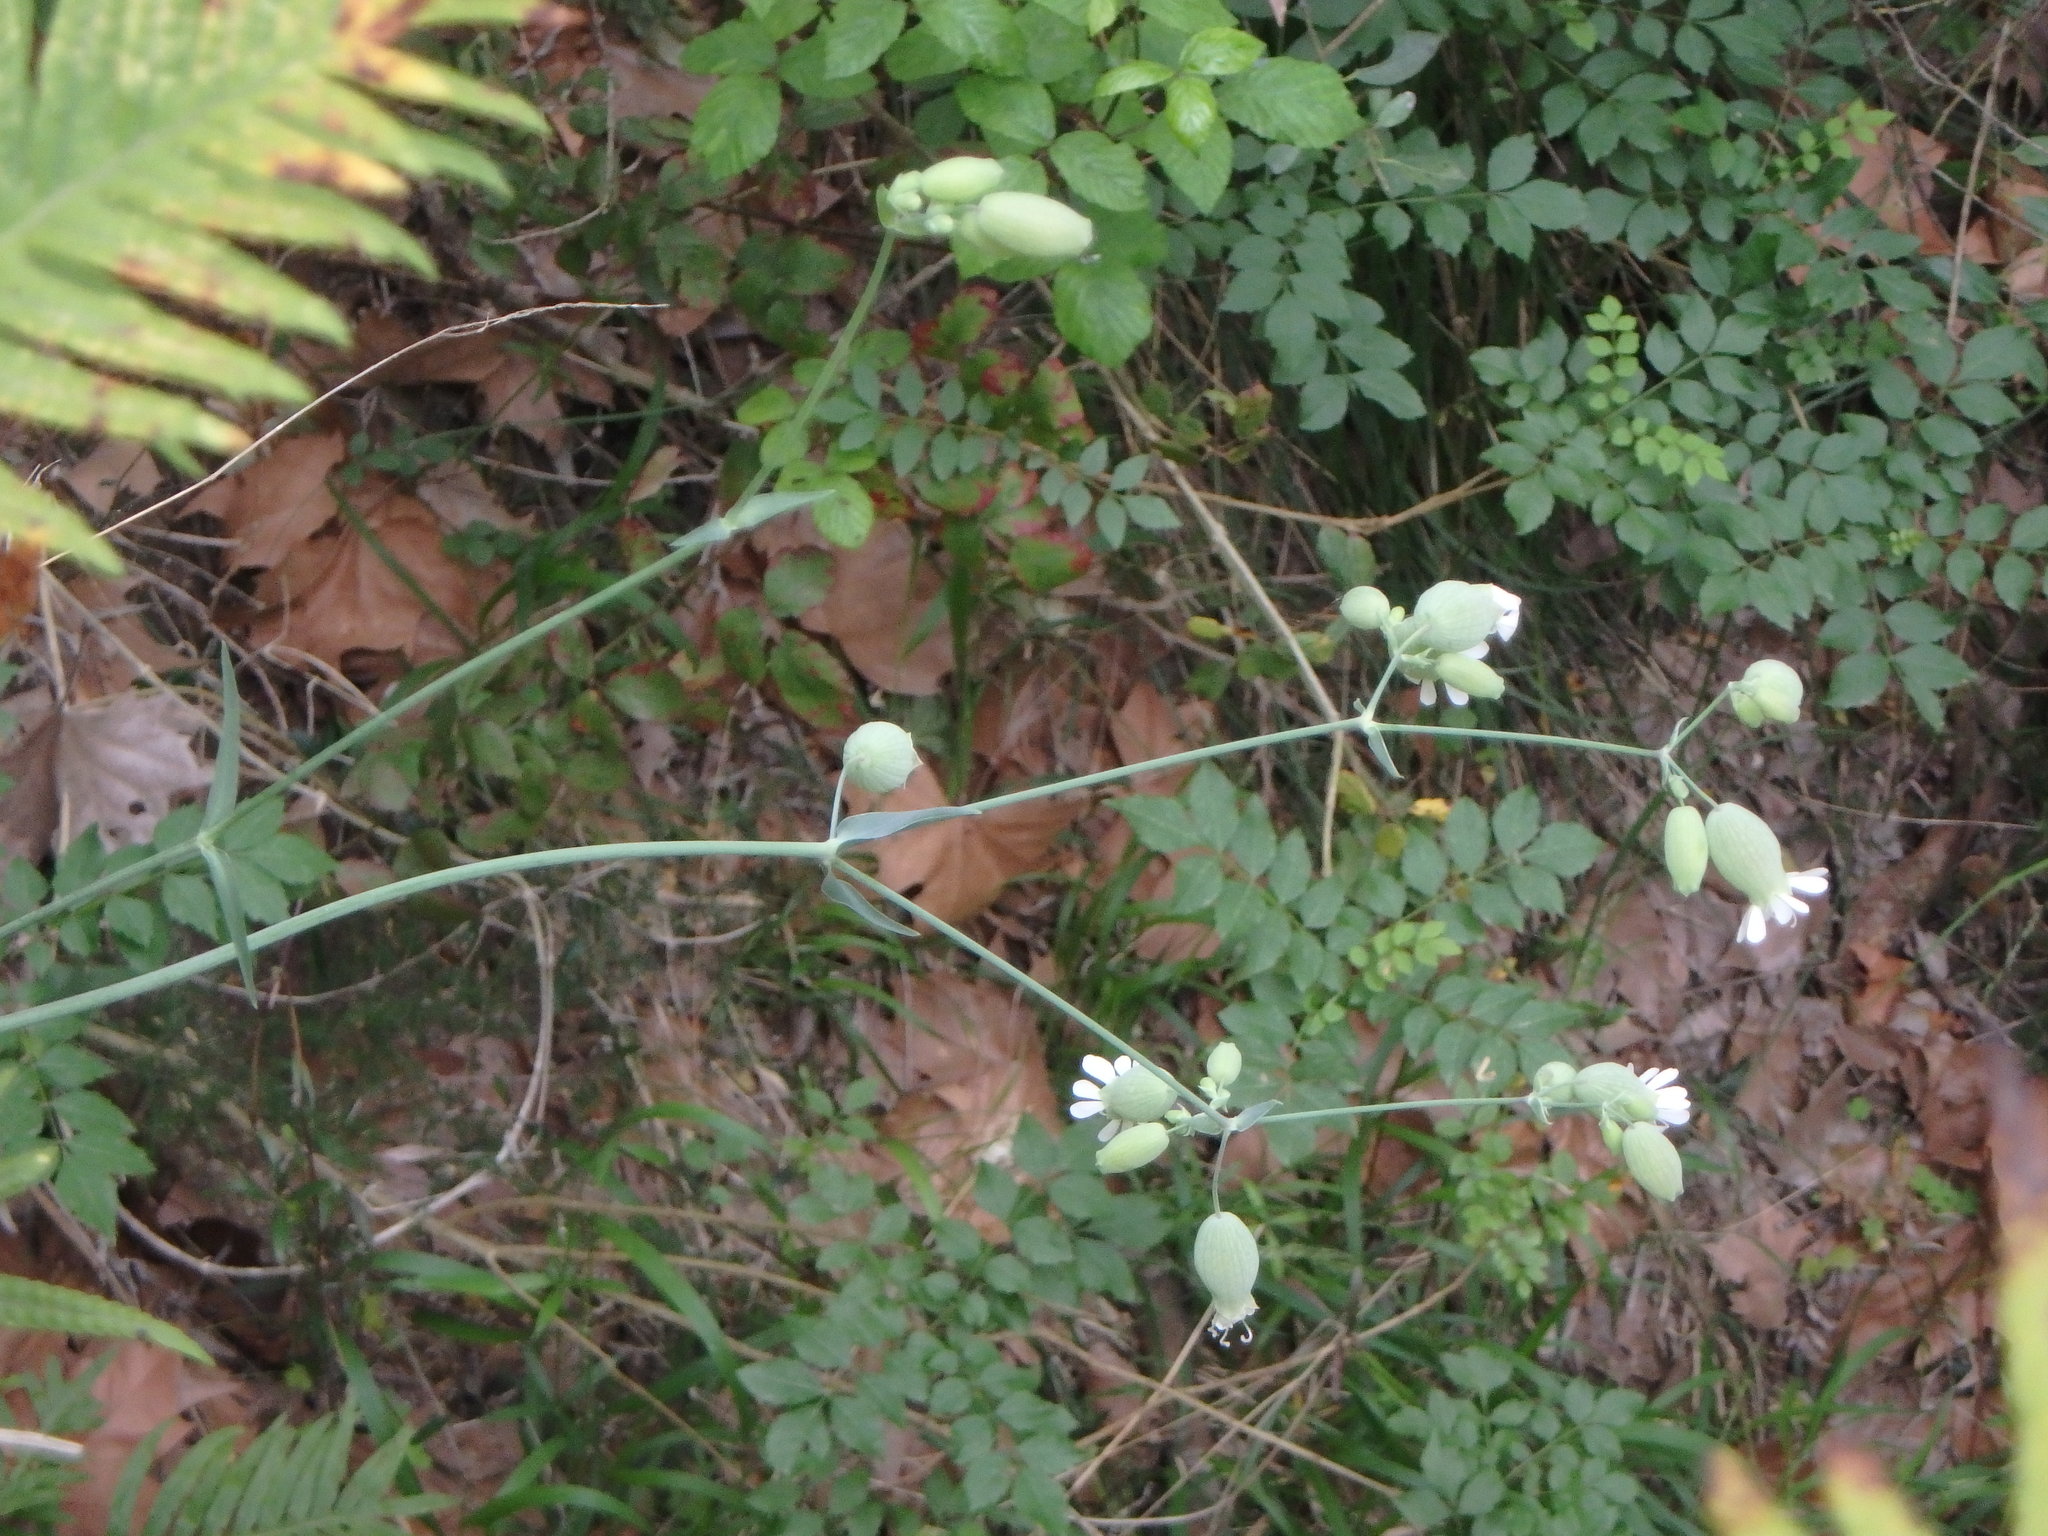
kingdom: Plantae
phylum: Tracheophyta
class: Magnoliopsida
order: Caryophyllales
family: Caryophyllaceae
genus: Silene
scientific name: Silene vulgaris
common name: Bladder campion
